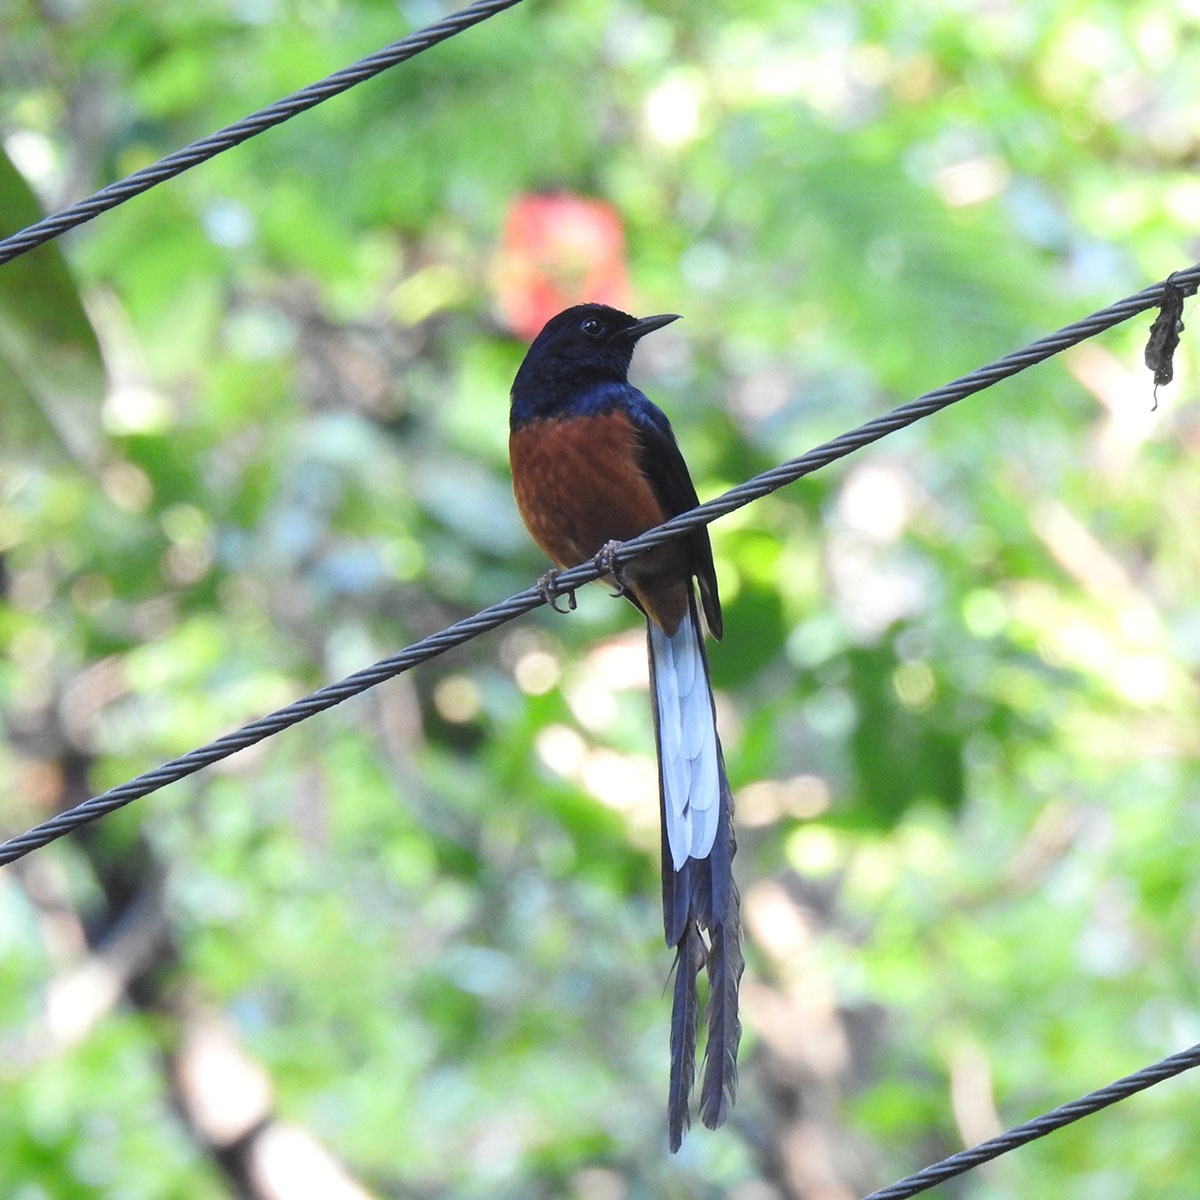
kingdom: Animalia
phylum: Chordata
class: Aves
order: Passeriformes
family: Muscicapidae
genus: Copsychus
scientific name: Copsychus malabaricus
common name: White-rumped shama
